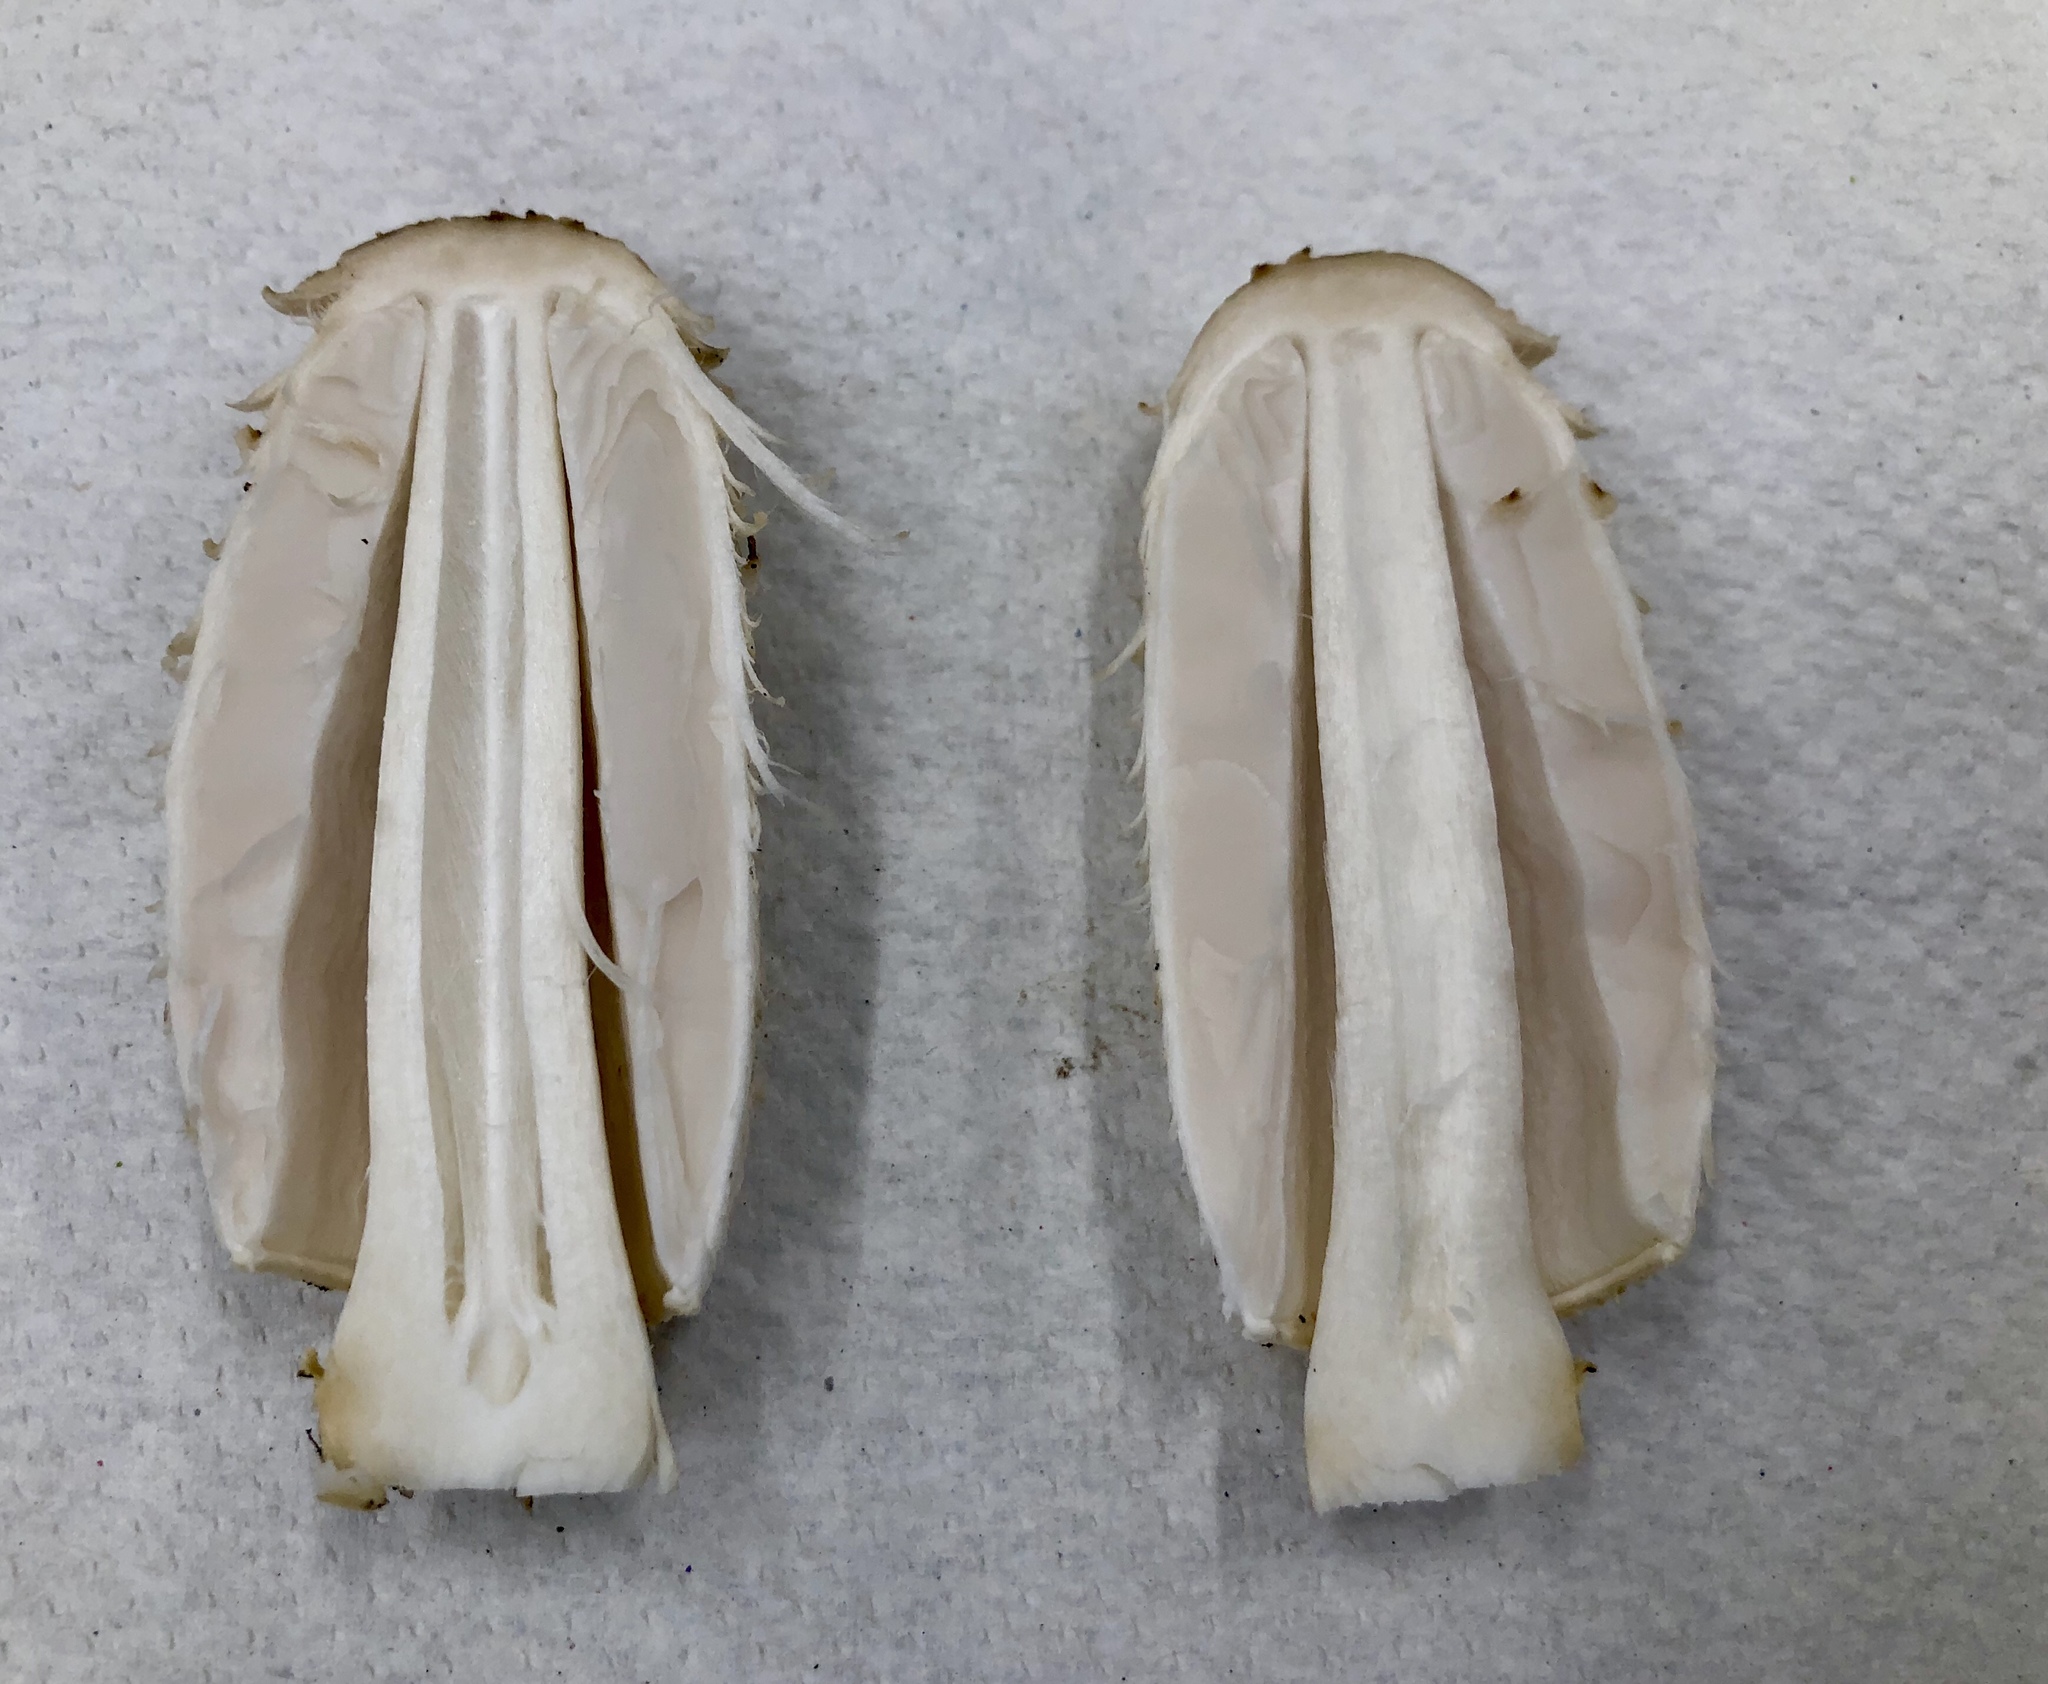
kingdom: Fungi
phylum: Basidiomycota
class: Agaricomycetes
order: Agaricales
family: Agaricaceae
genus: Coprinus
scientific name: Coprinus comatus
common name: Lawyer's wig
